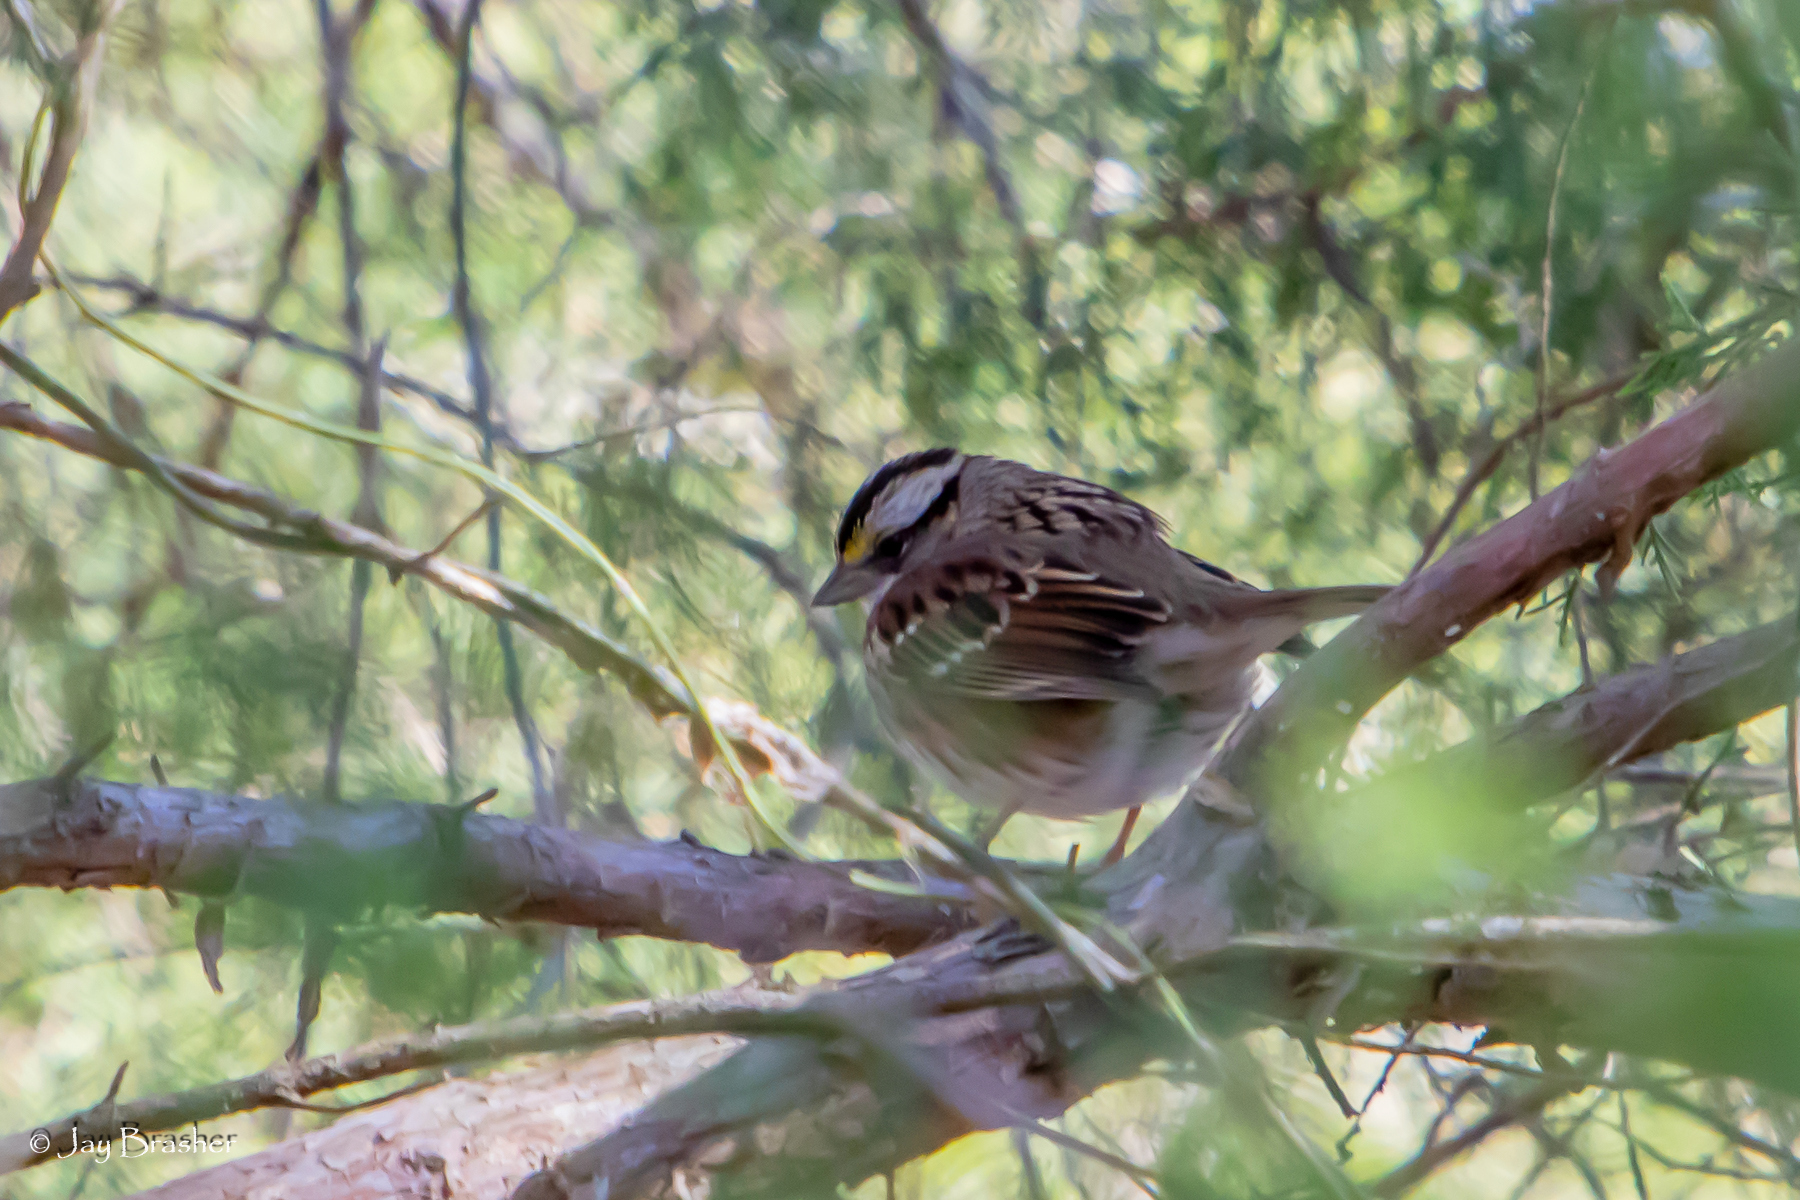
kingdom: Animalia
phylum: Chordata
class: Aves
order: Passeriformes
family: Passerellidae
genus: Zonotrichia
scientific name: Zonotrichia albicollis
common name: White-throated sparrow
